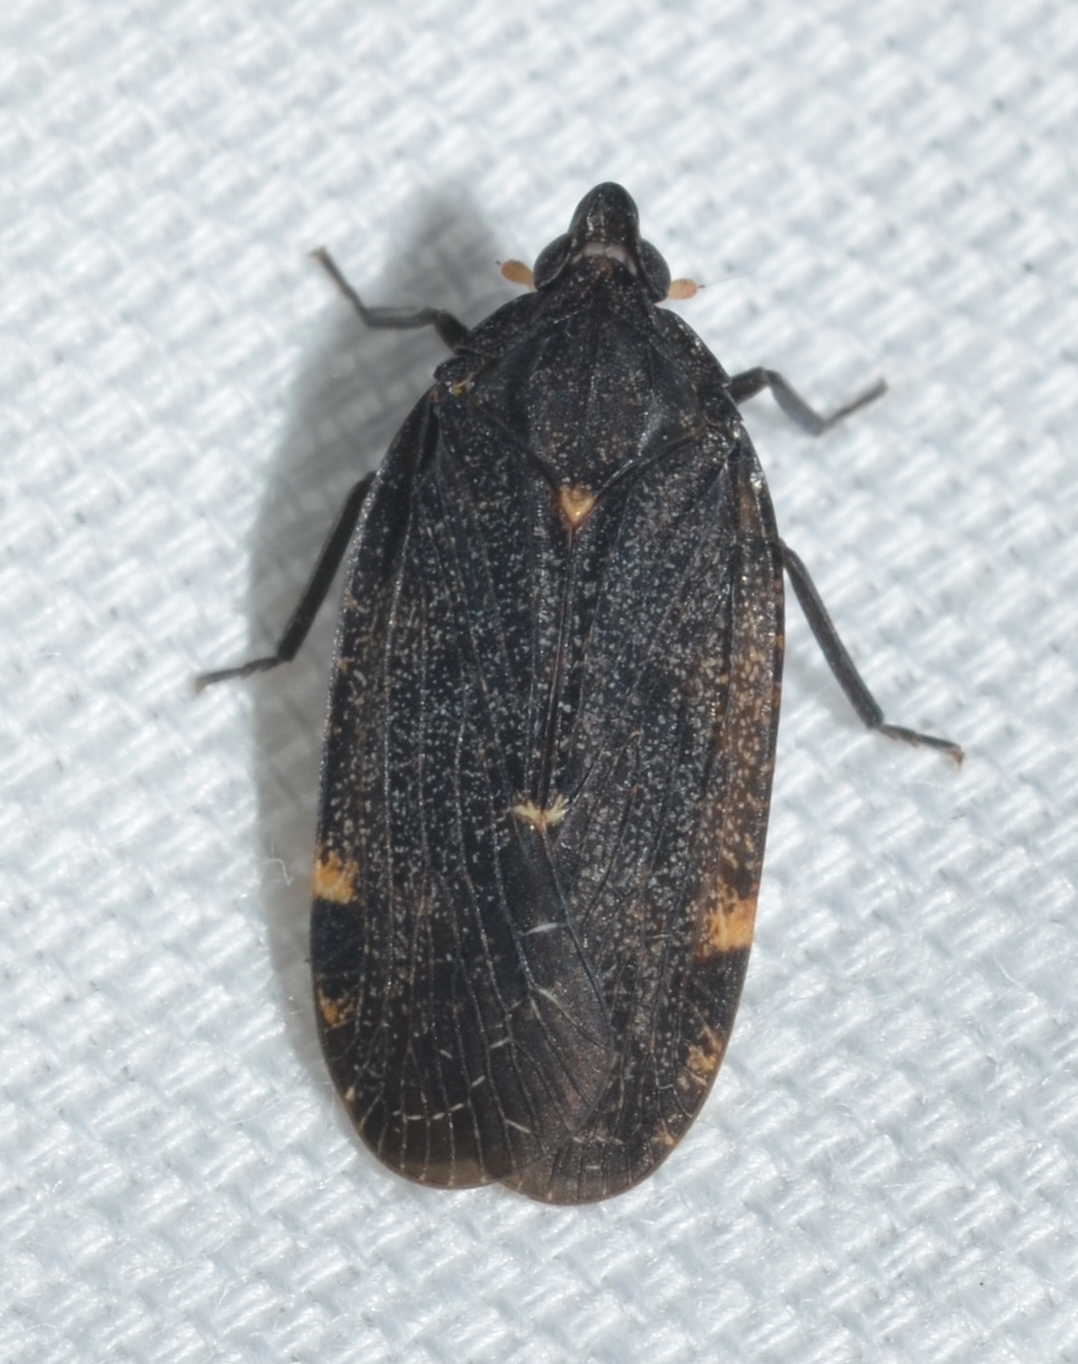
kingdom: Animalia
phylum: Arthropoda
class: Insecta
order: Hemiptera
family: Achilidae
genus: Cixidia
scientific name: Cixidia opaca
